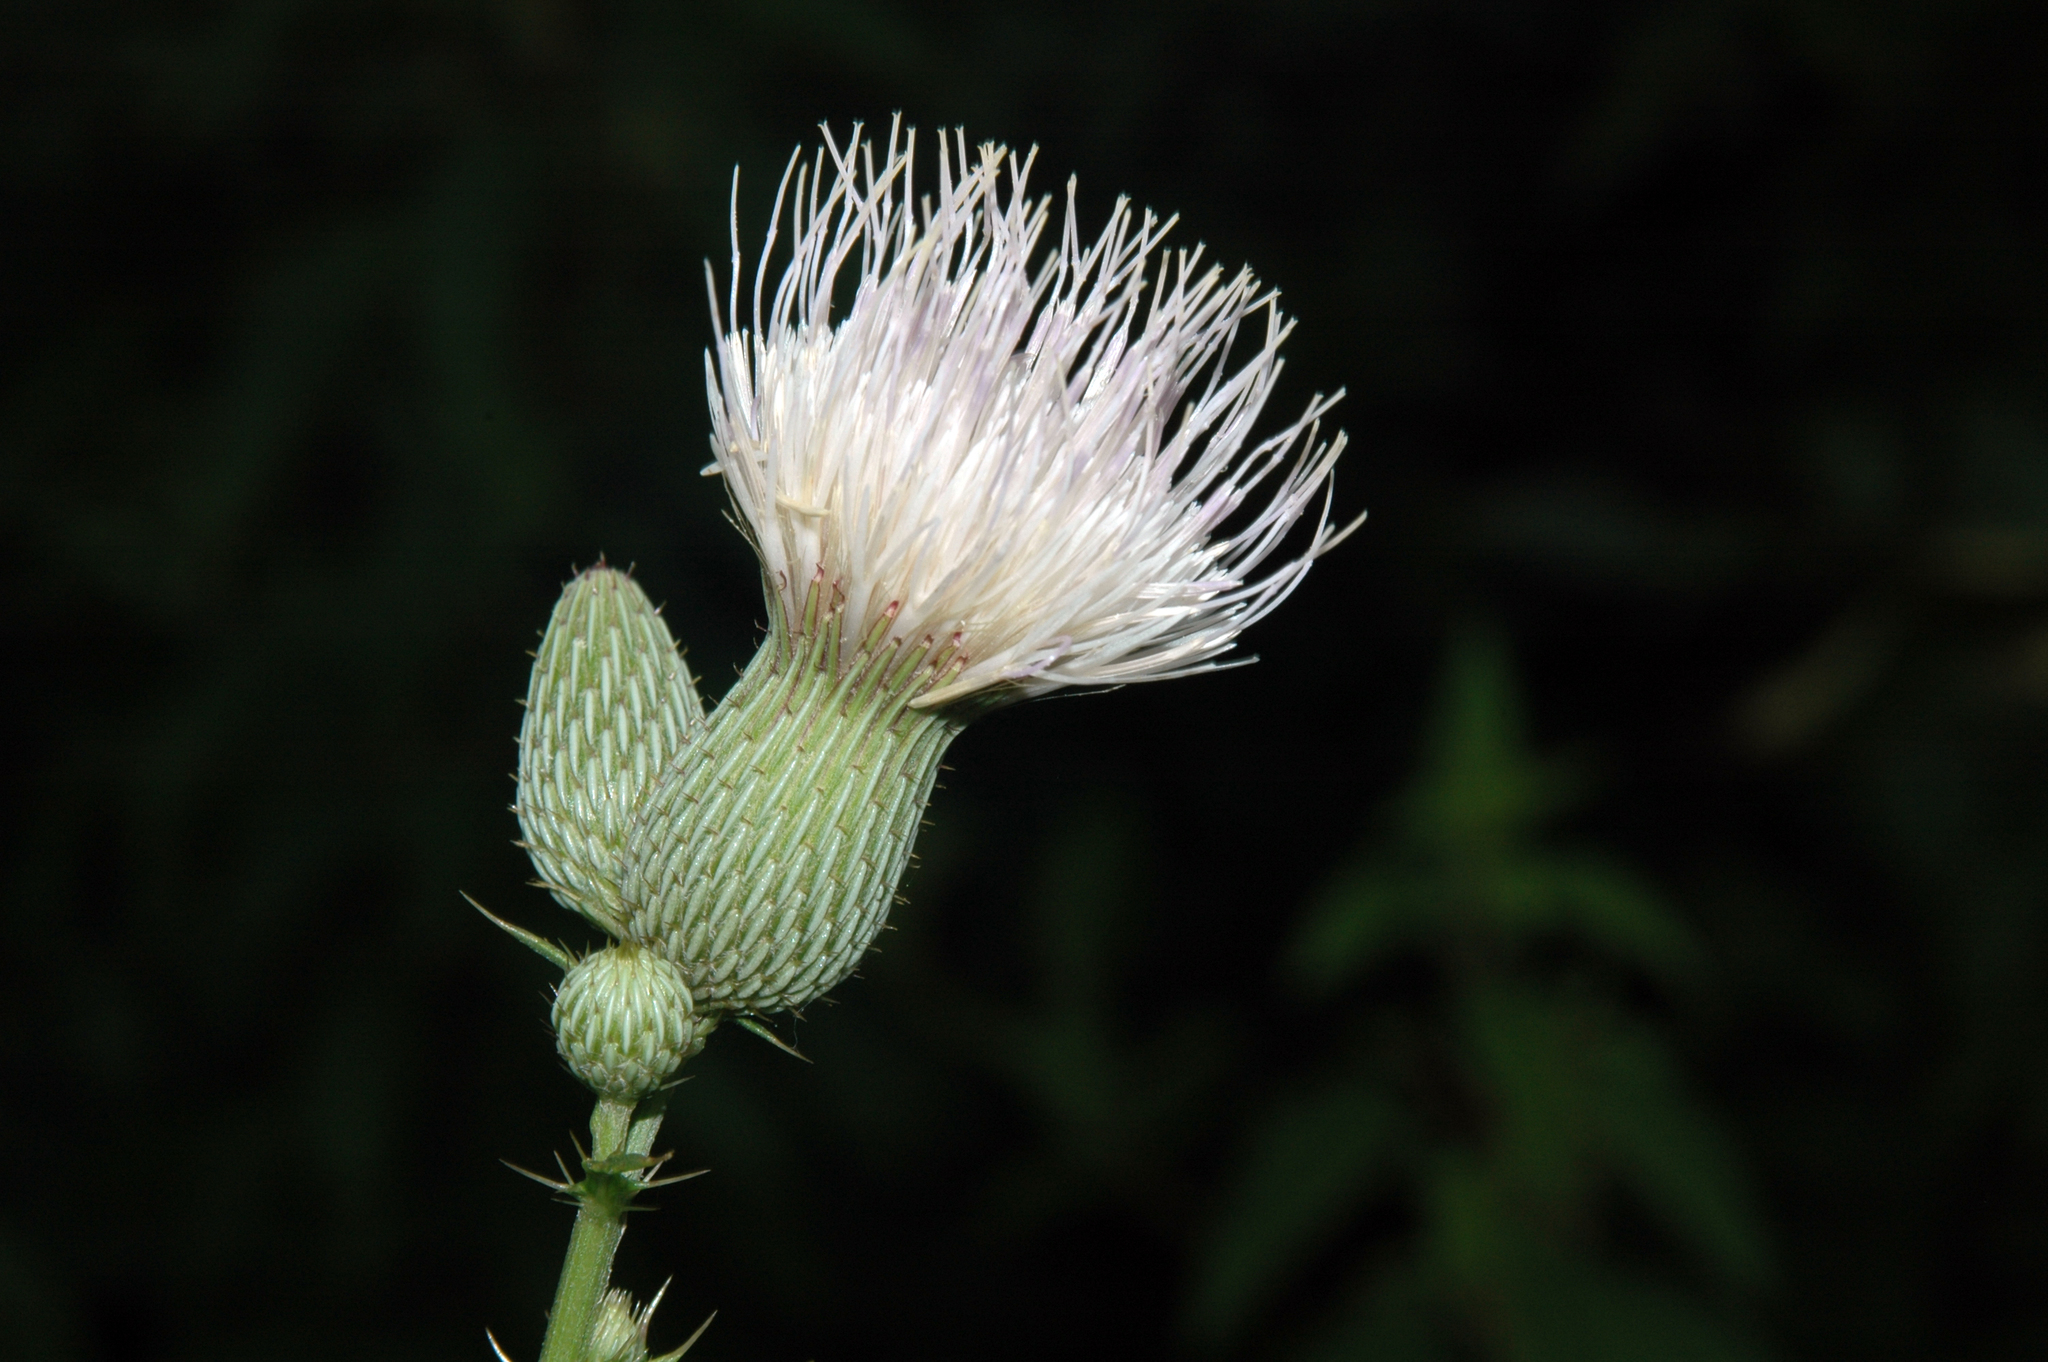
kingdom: Plantae
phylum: Tracheophyta
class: Magnoliopsida
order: Asterales
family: Asteraceae
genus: Cirsium
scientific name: Cirsium nuttalii
